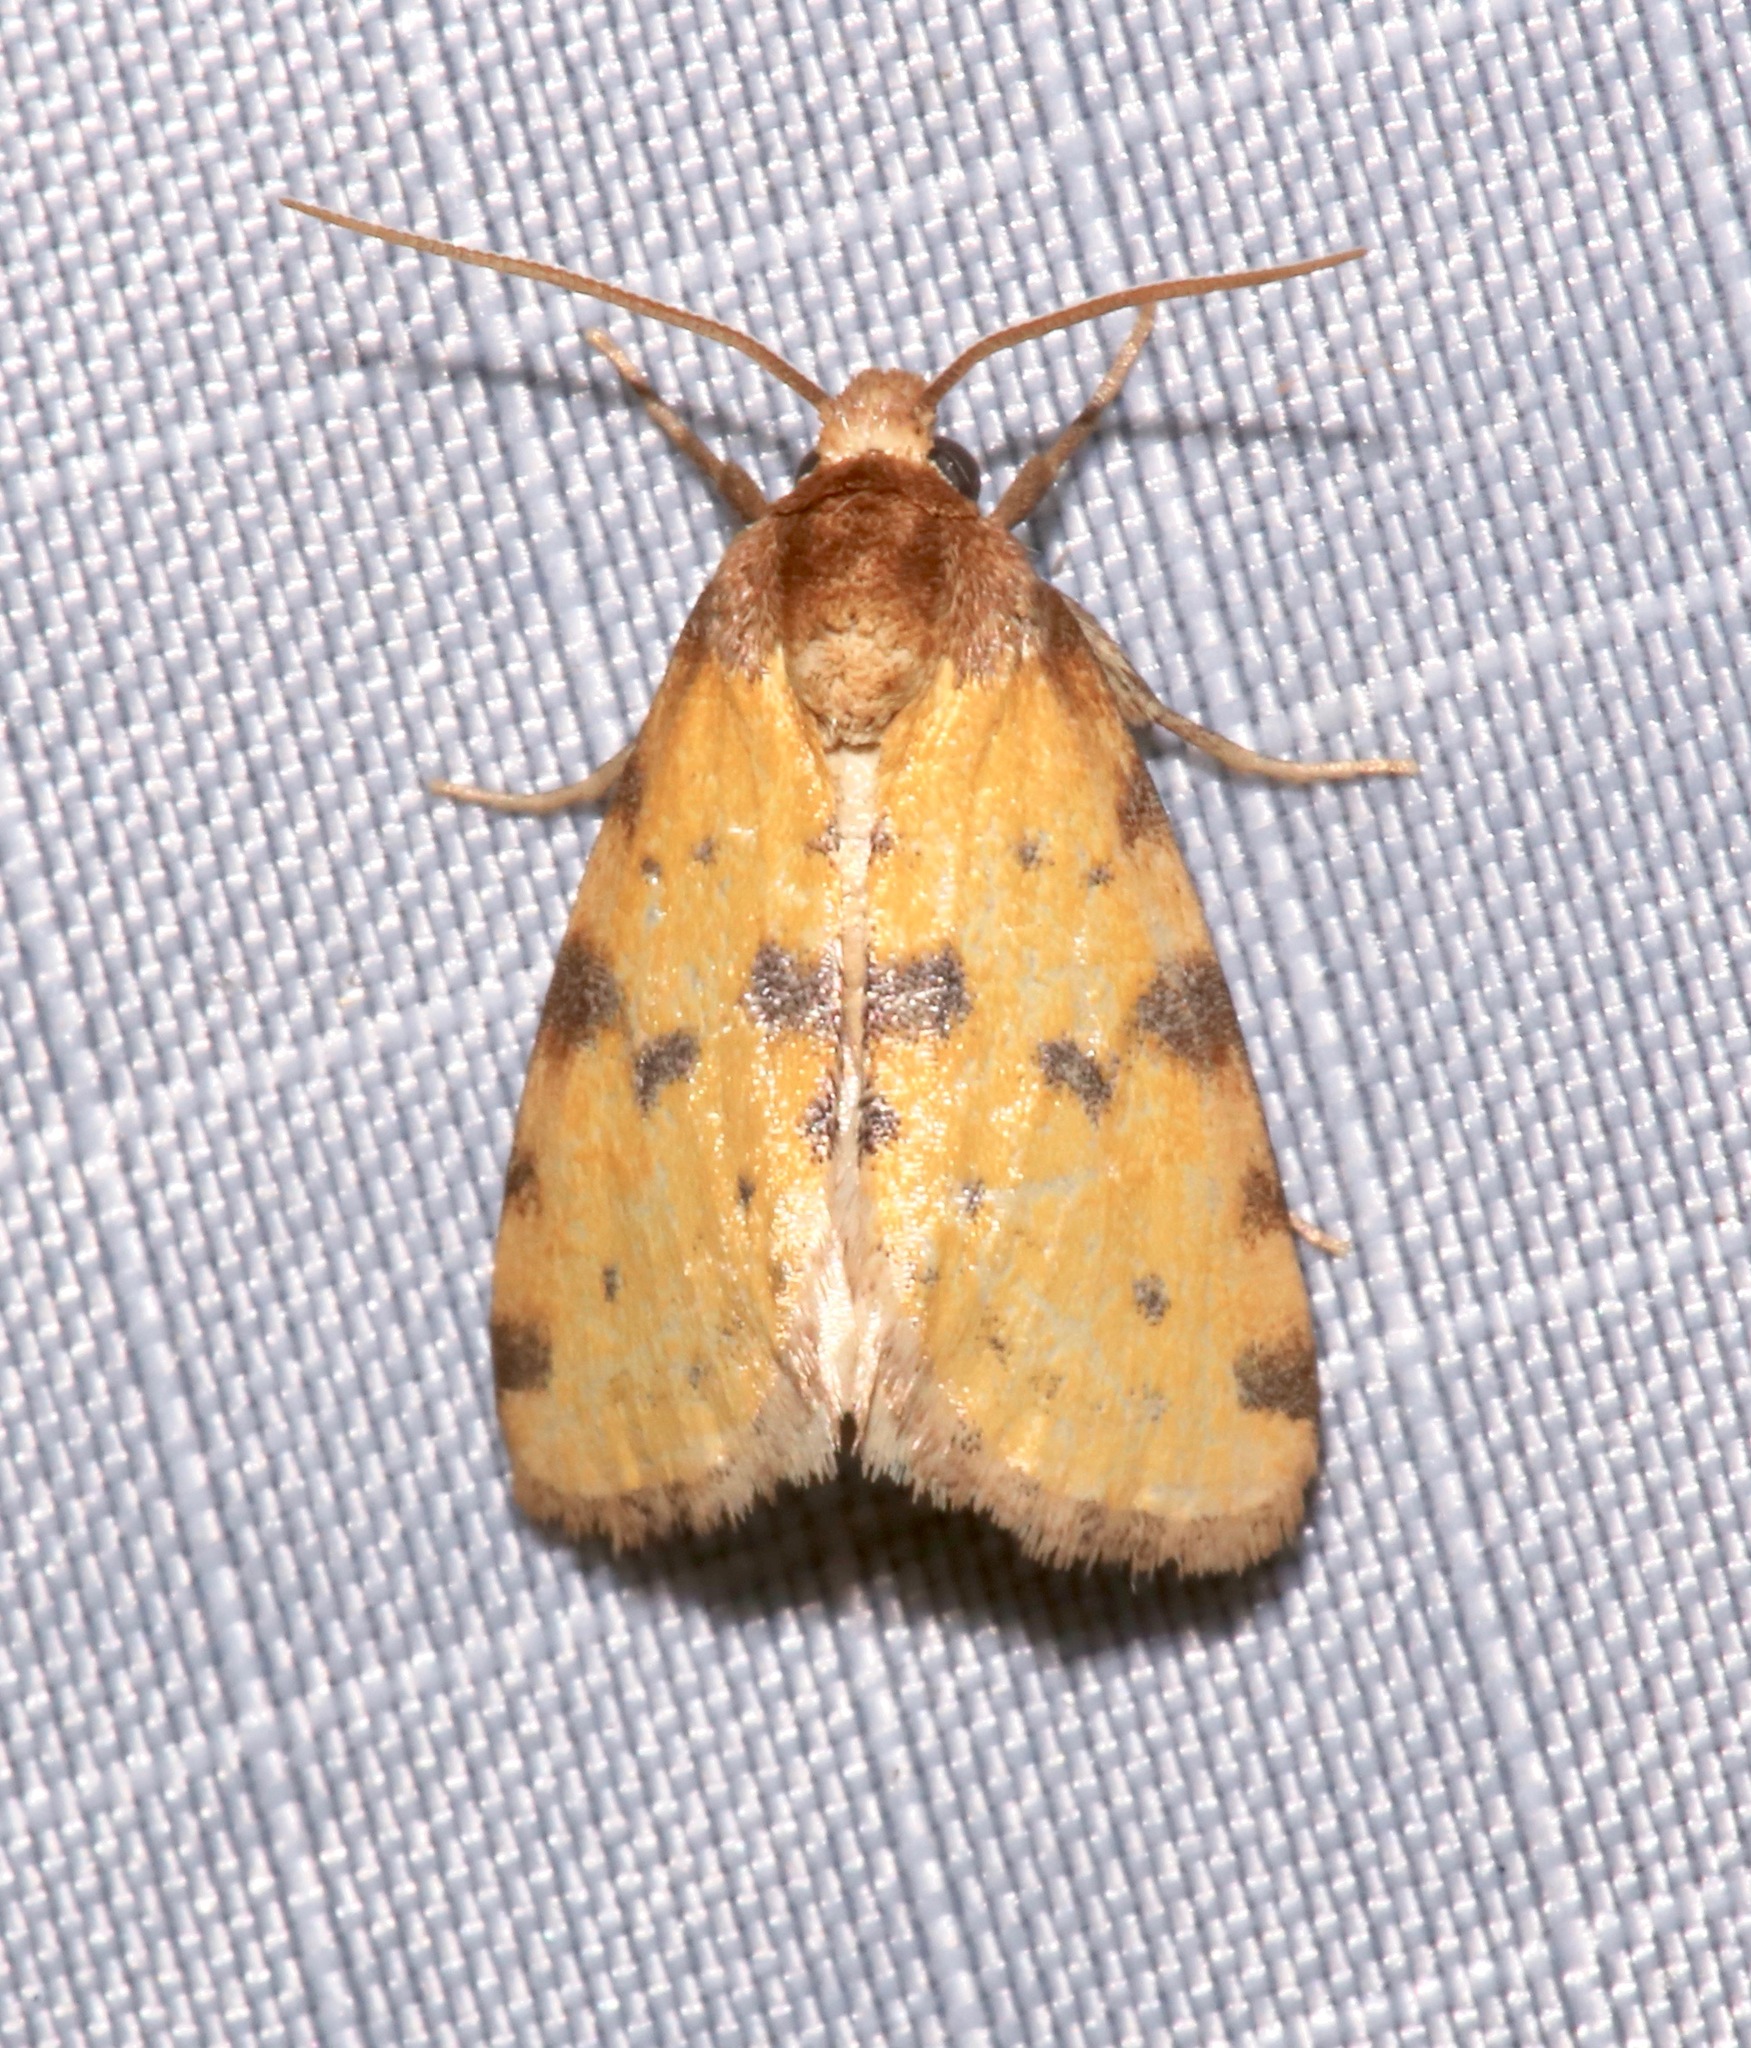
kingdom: Animalia
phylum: Arthropoda
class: Insecta
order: Lepidoptera
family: Noctuidae
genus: Azenia
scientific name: Azenia obtusa
